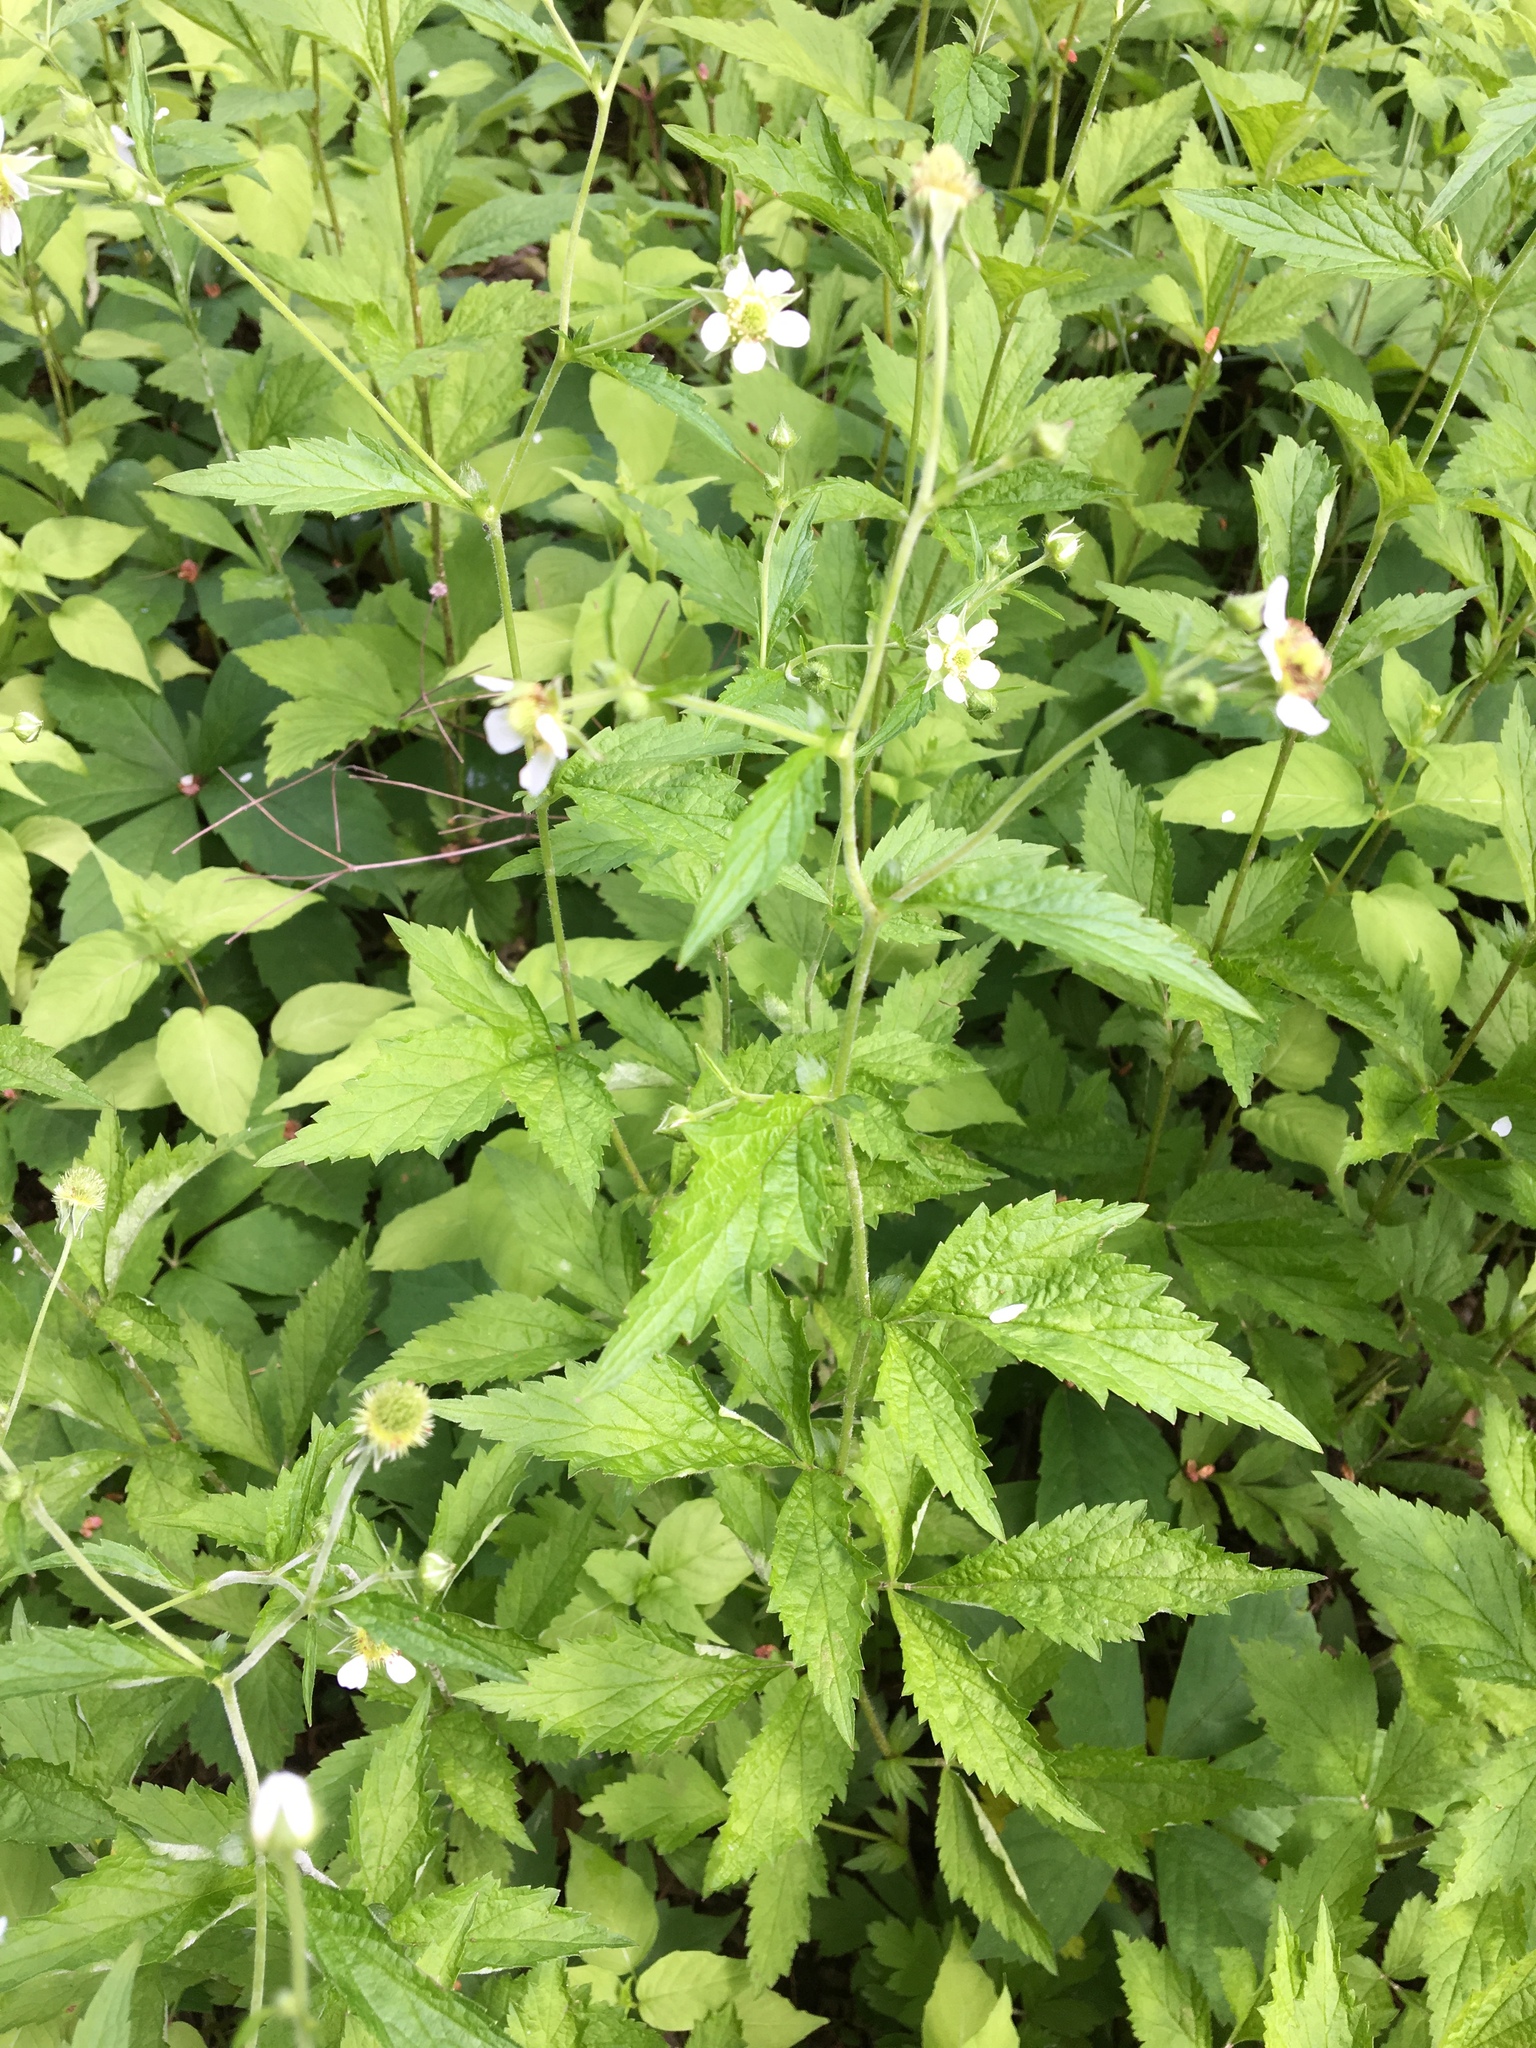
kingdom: Plantae
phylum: Tracheophyta
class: Magnoliopsida
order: Rosales
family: Rosaceae
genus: Geum
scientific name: Geum canadense
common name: White avens
